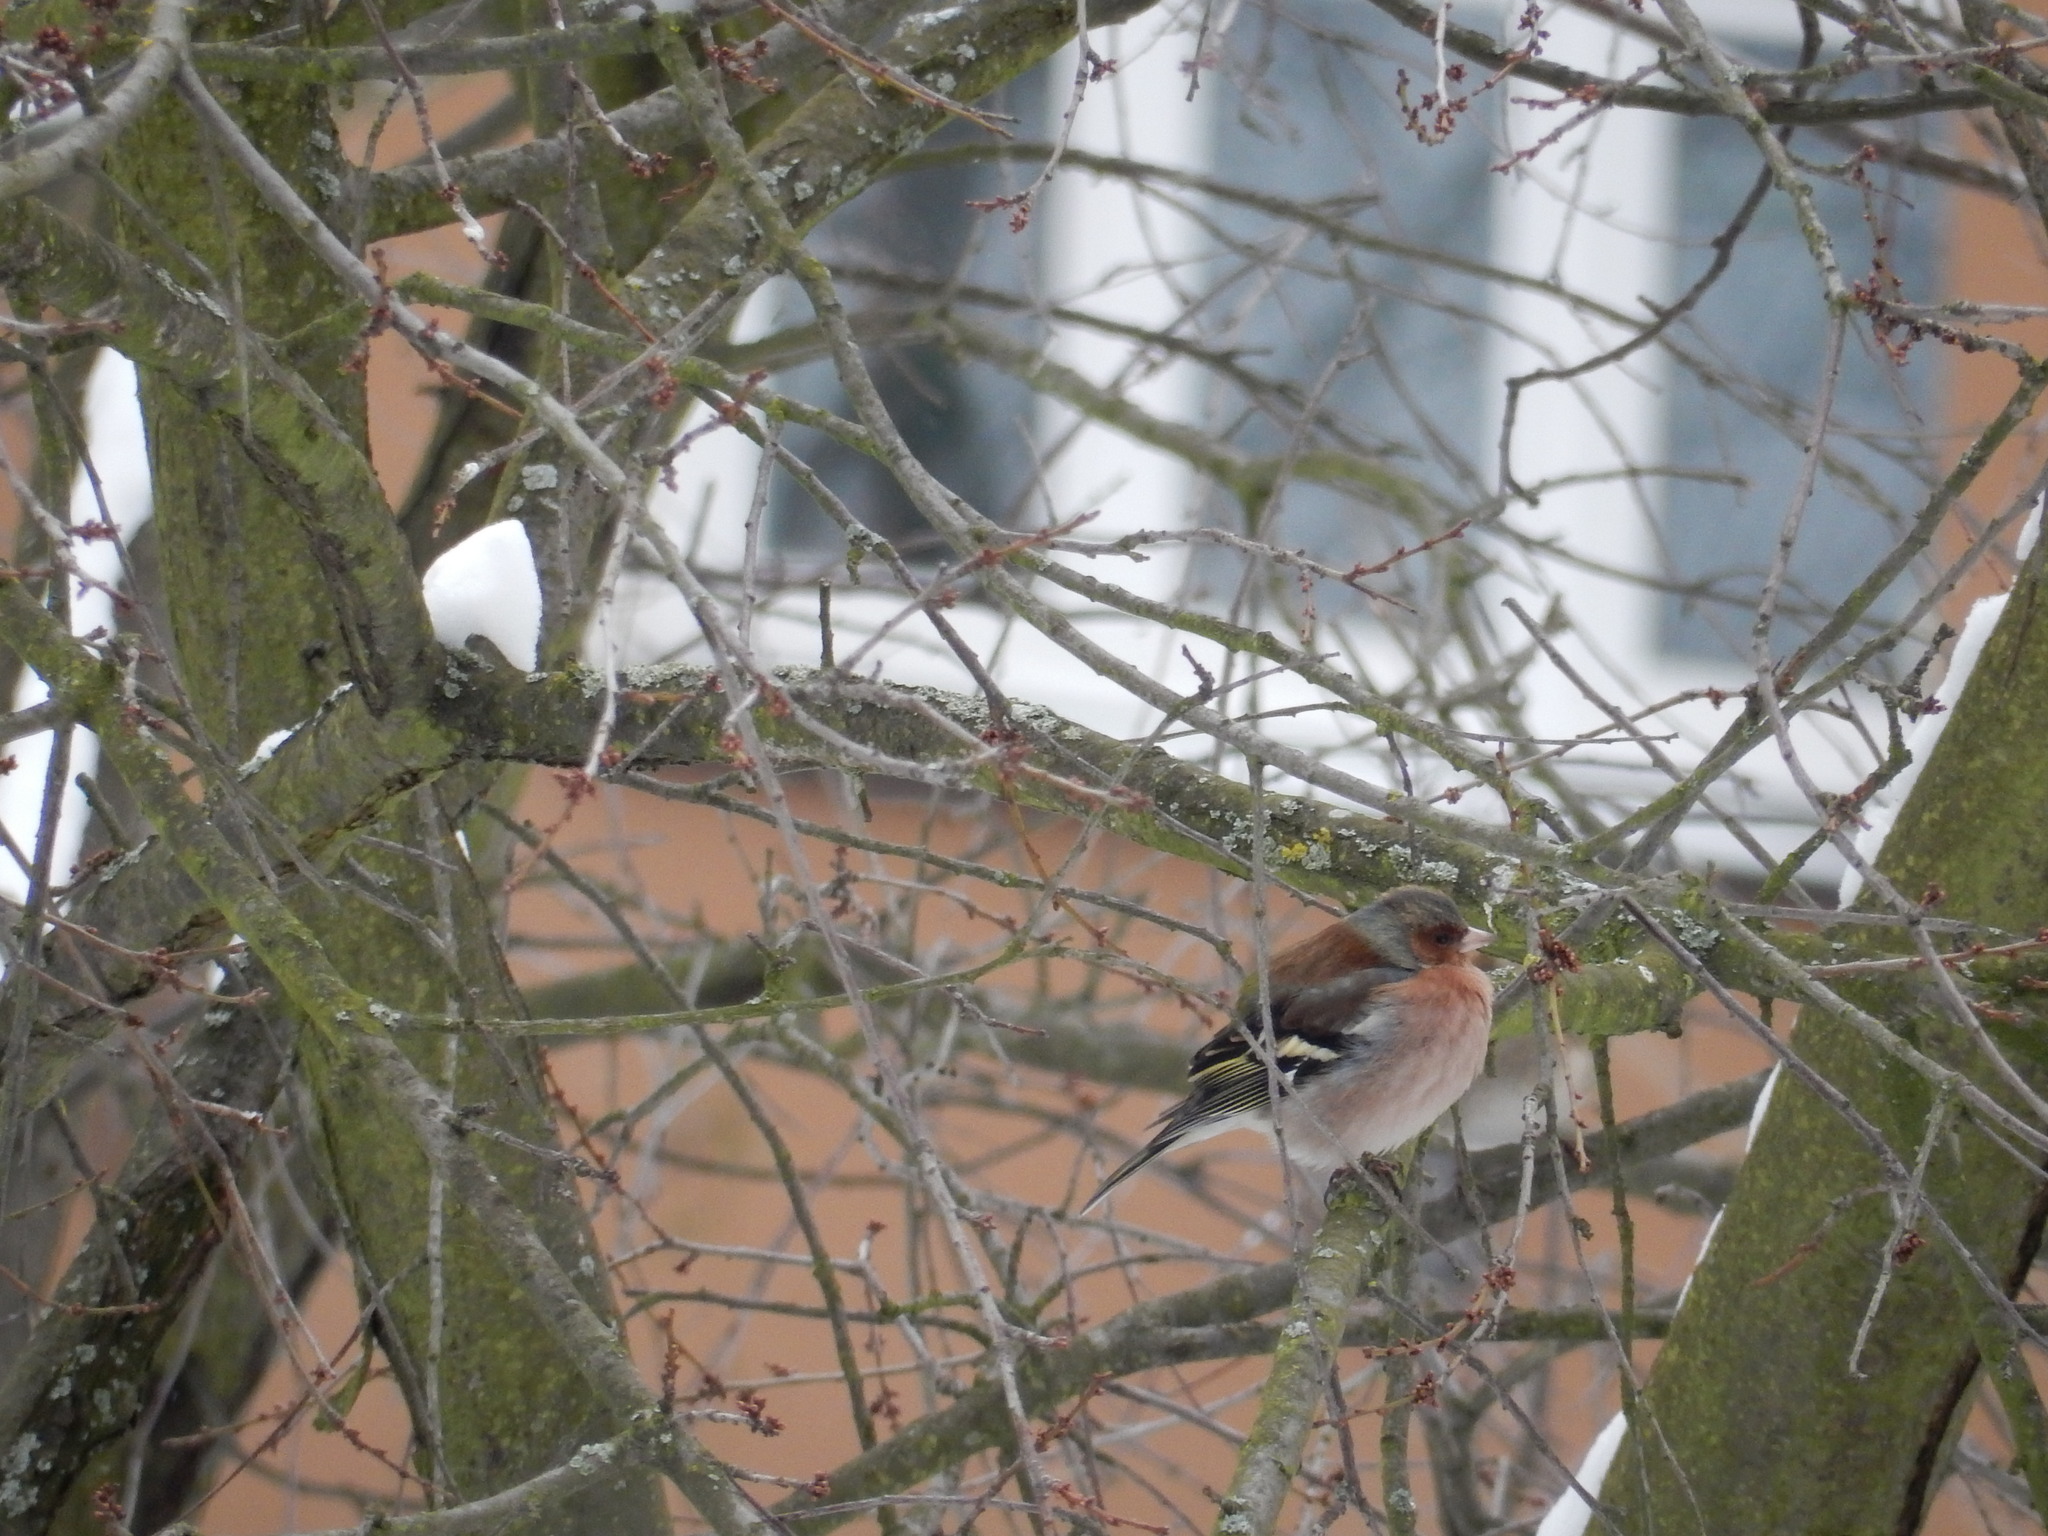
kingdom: Animalia
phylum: Chordata
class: Aves
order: Passeriformes
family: Fringillidae
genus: Fringilla
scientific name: Fringilla coelebs
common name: Common chaffinch
